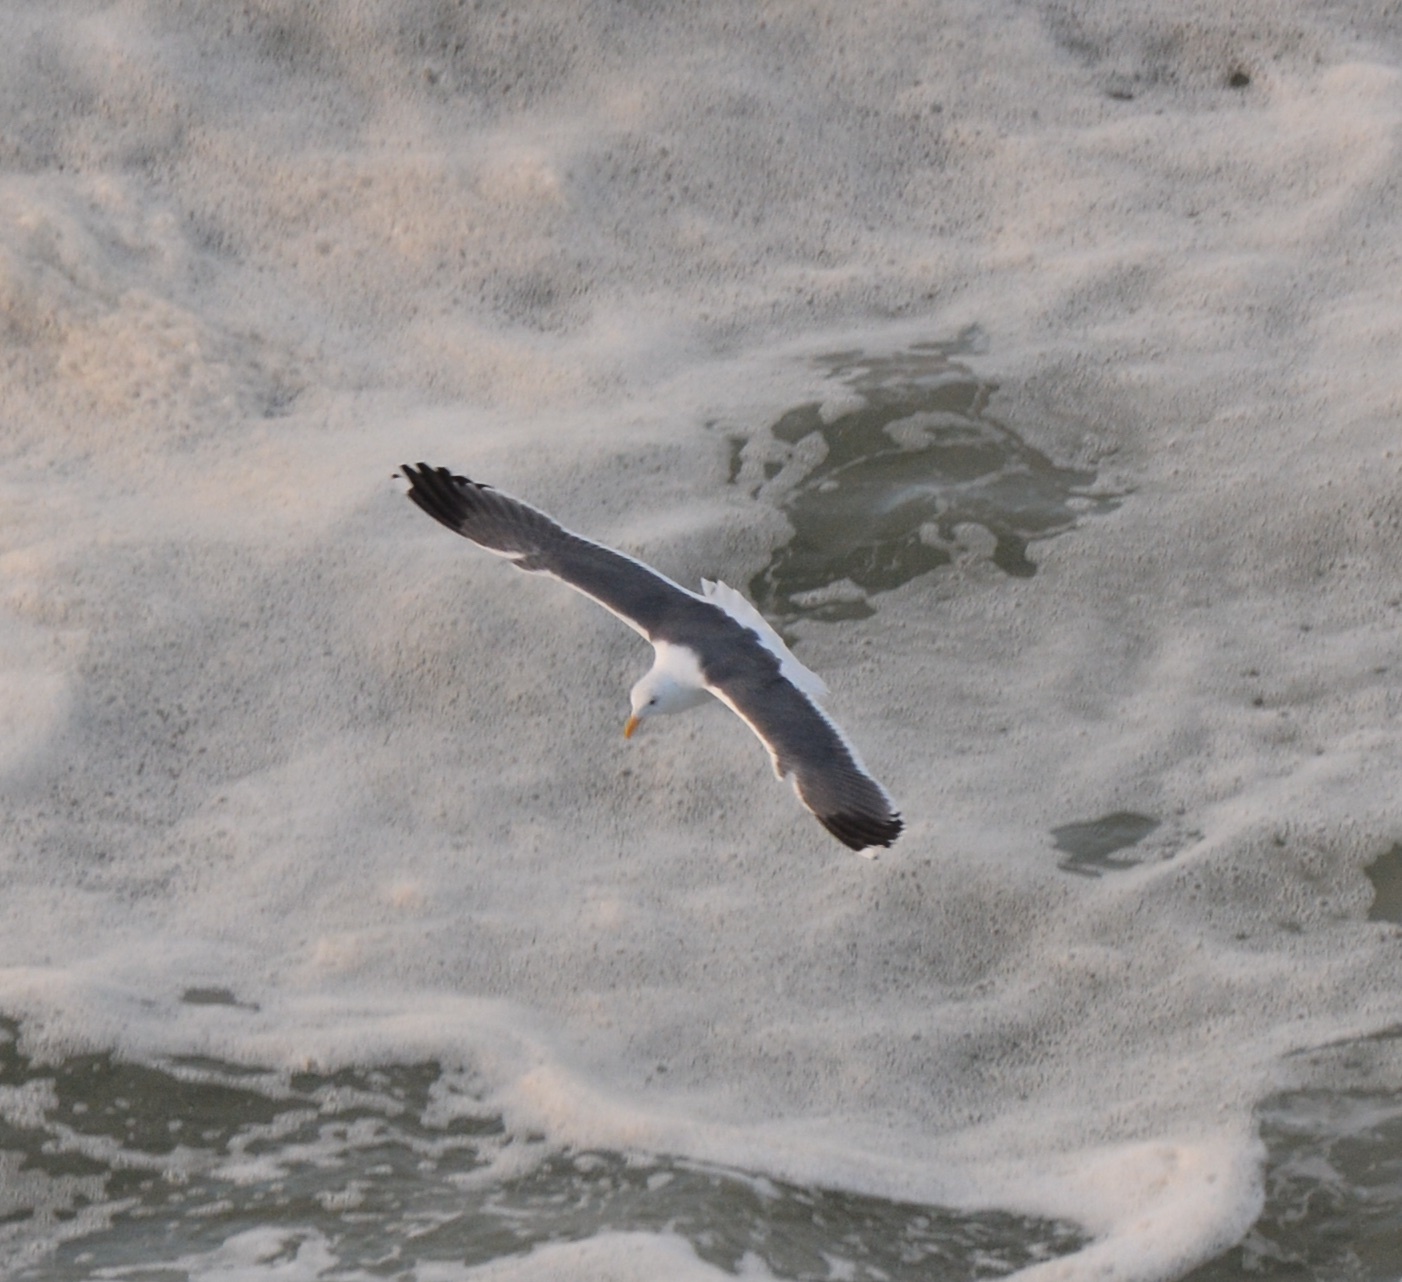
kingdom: Animalia
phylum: Chordata
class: Aves
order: Charadriiformes
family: Laridae
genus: Larus
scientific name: Larus occidentalis
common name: Western gull
